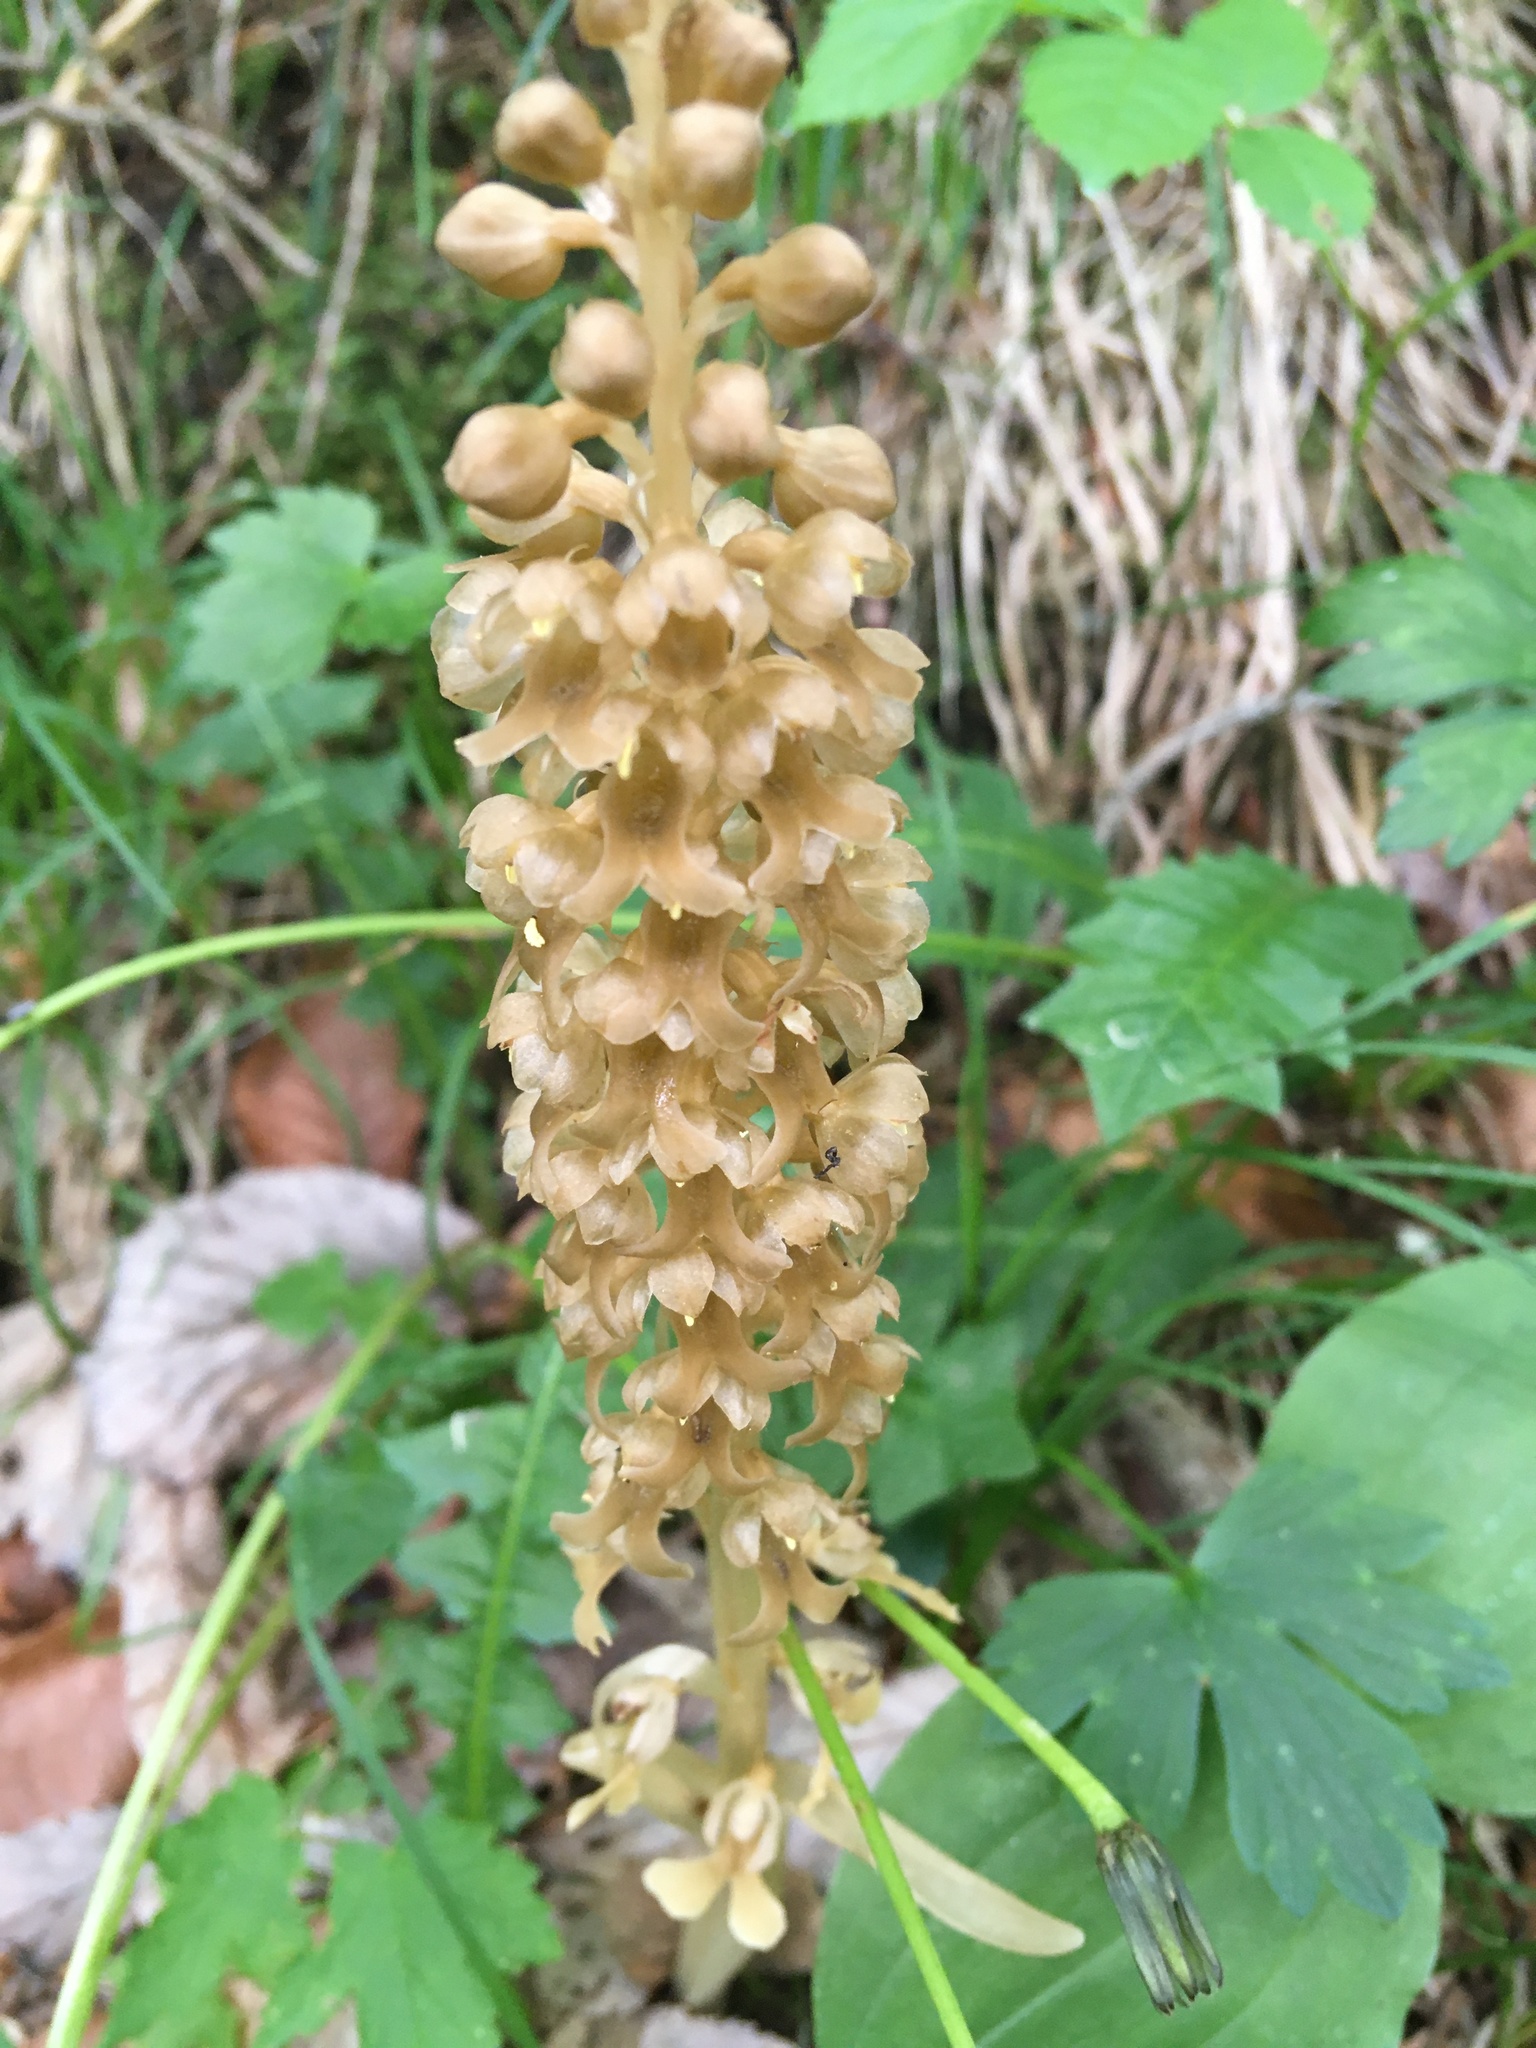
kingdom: Plantae
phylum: Tracheophyta
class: Liliopsida
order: Asparagales
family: Orchidaceae
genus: Neottia
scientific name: Neottia nidus-avis
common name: Bird's-nest orchid
